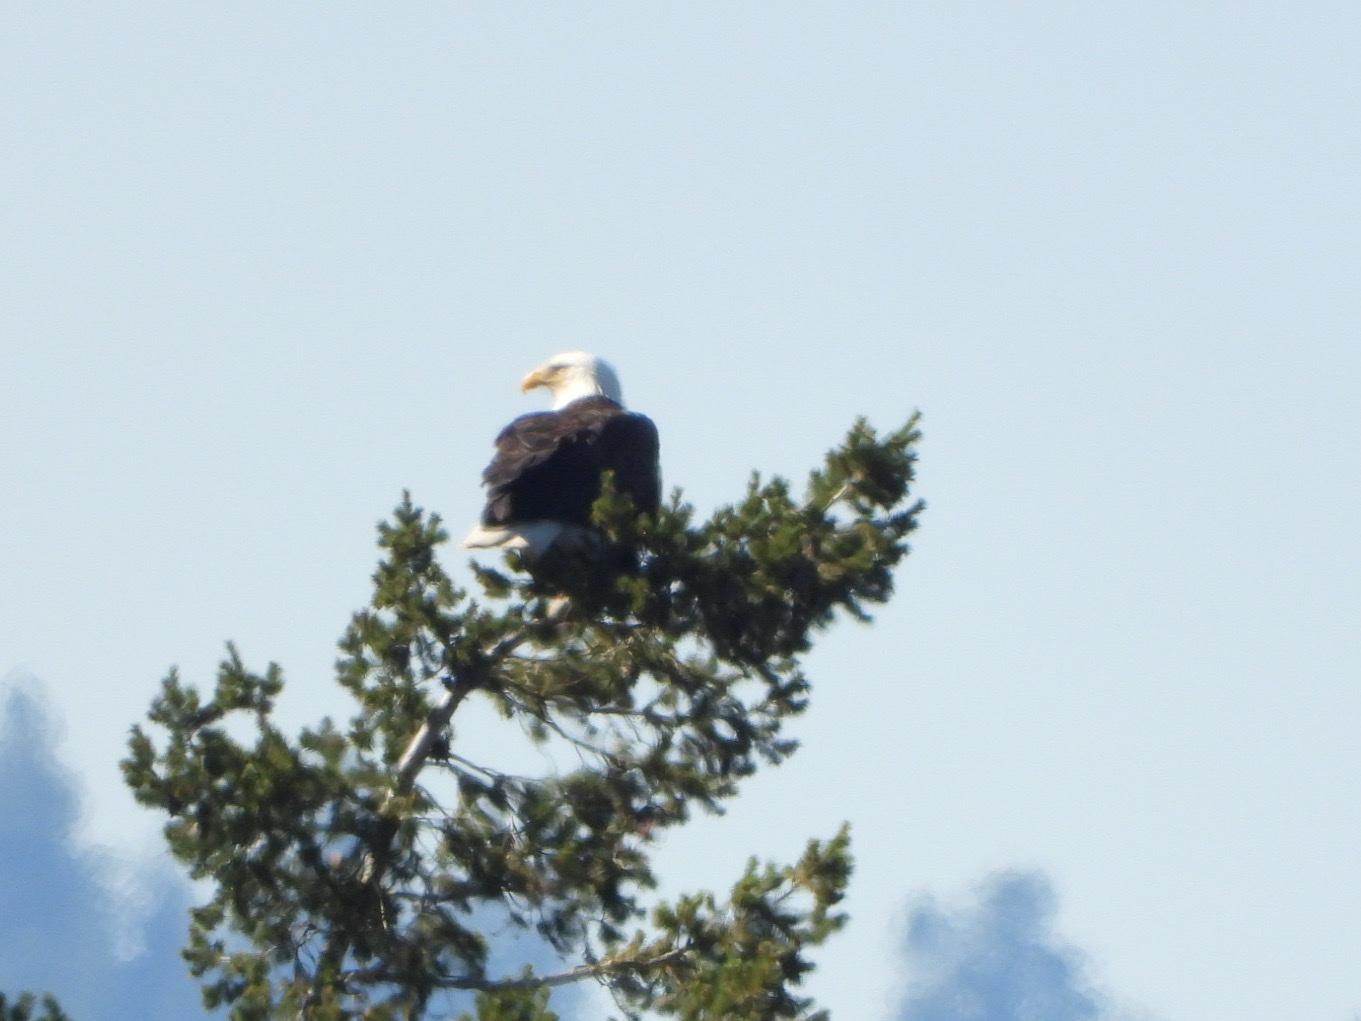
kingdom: Animalia
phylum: Chordata
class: Aves
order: Accipitriformes
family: Accipitridae
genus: Haliaeetus
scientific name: Haliaeetus leucocephalus
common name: Bald eagle
